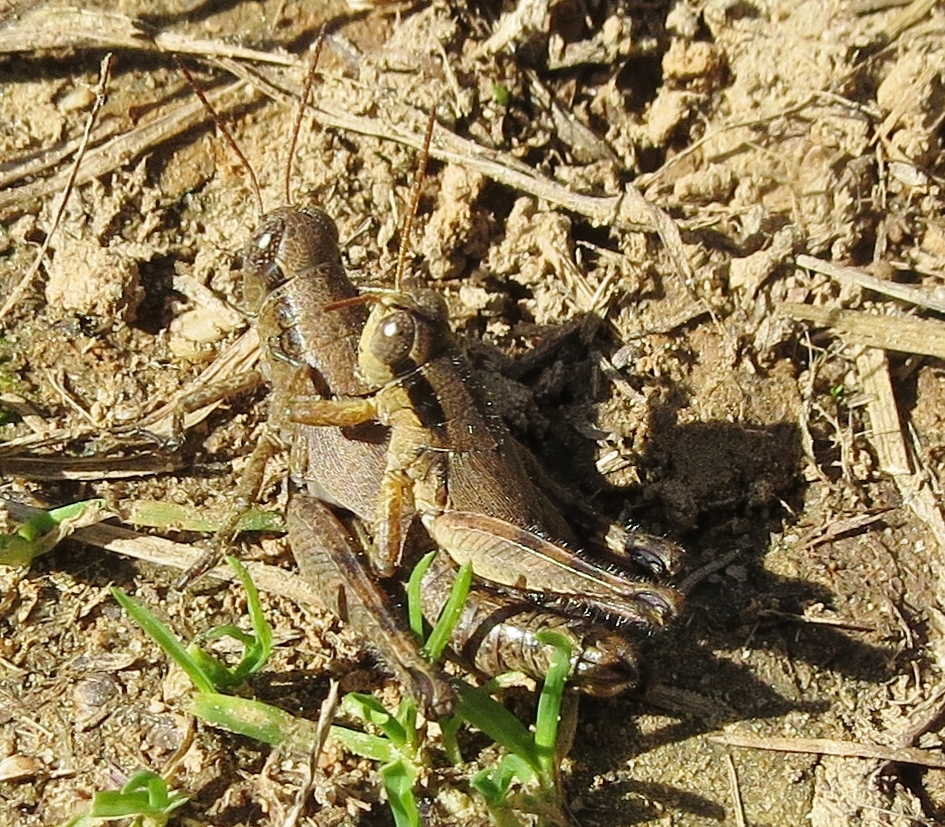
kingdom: Animalia
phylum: Arthropoda
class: Insecta
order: Orthoptera
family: Acrididae
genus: Melanoplus
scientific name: Melanoplus scudderi
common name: Scudder's short-winged locust
